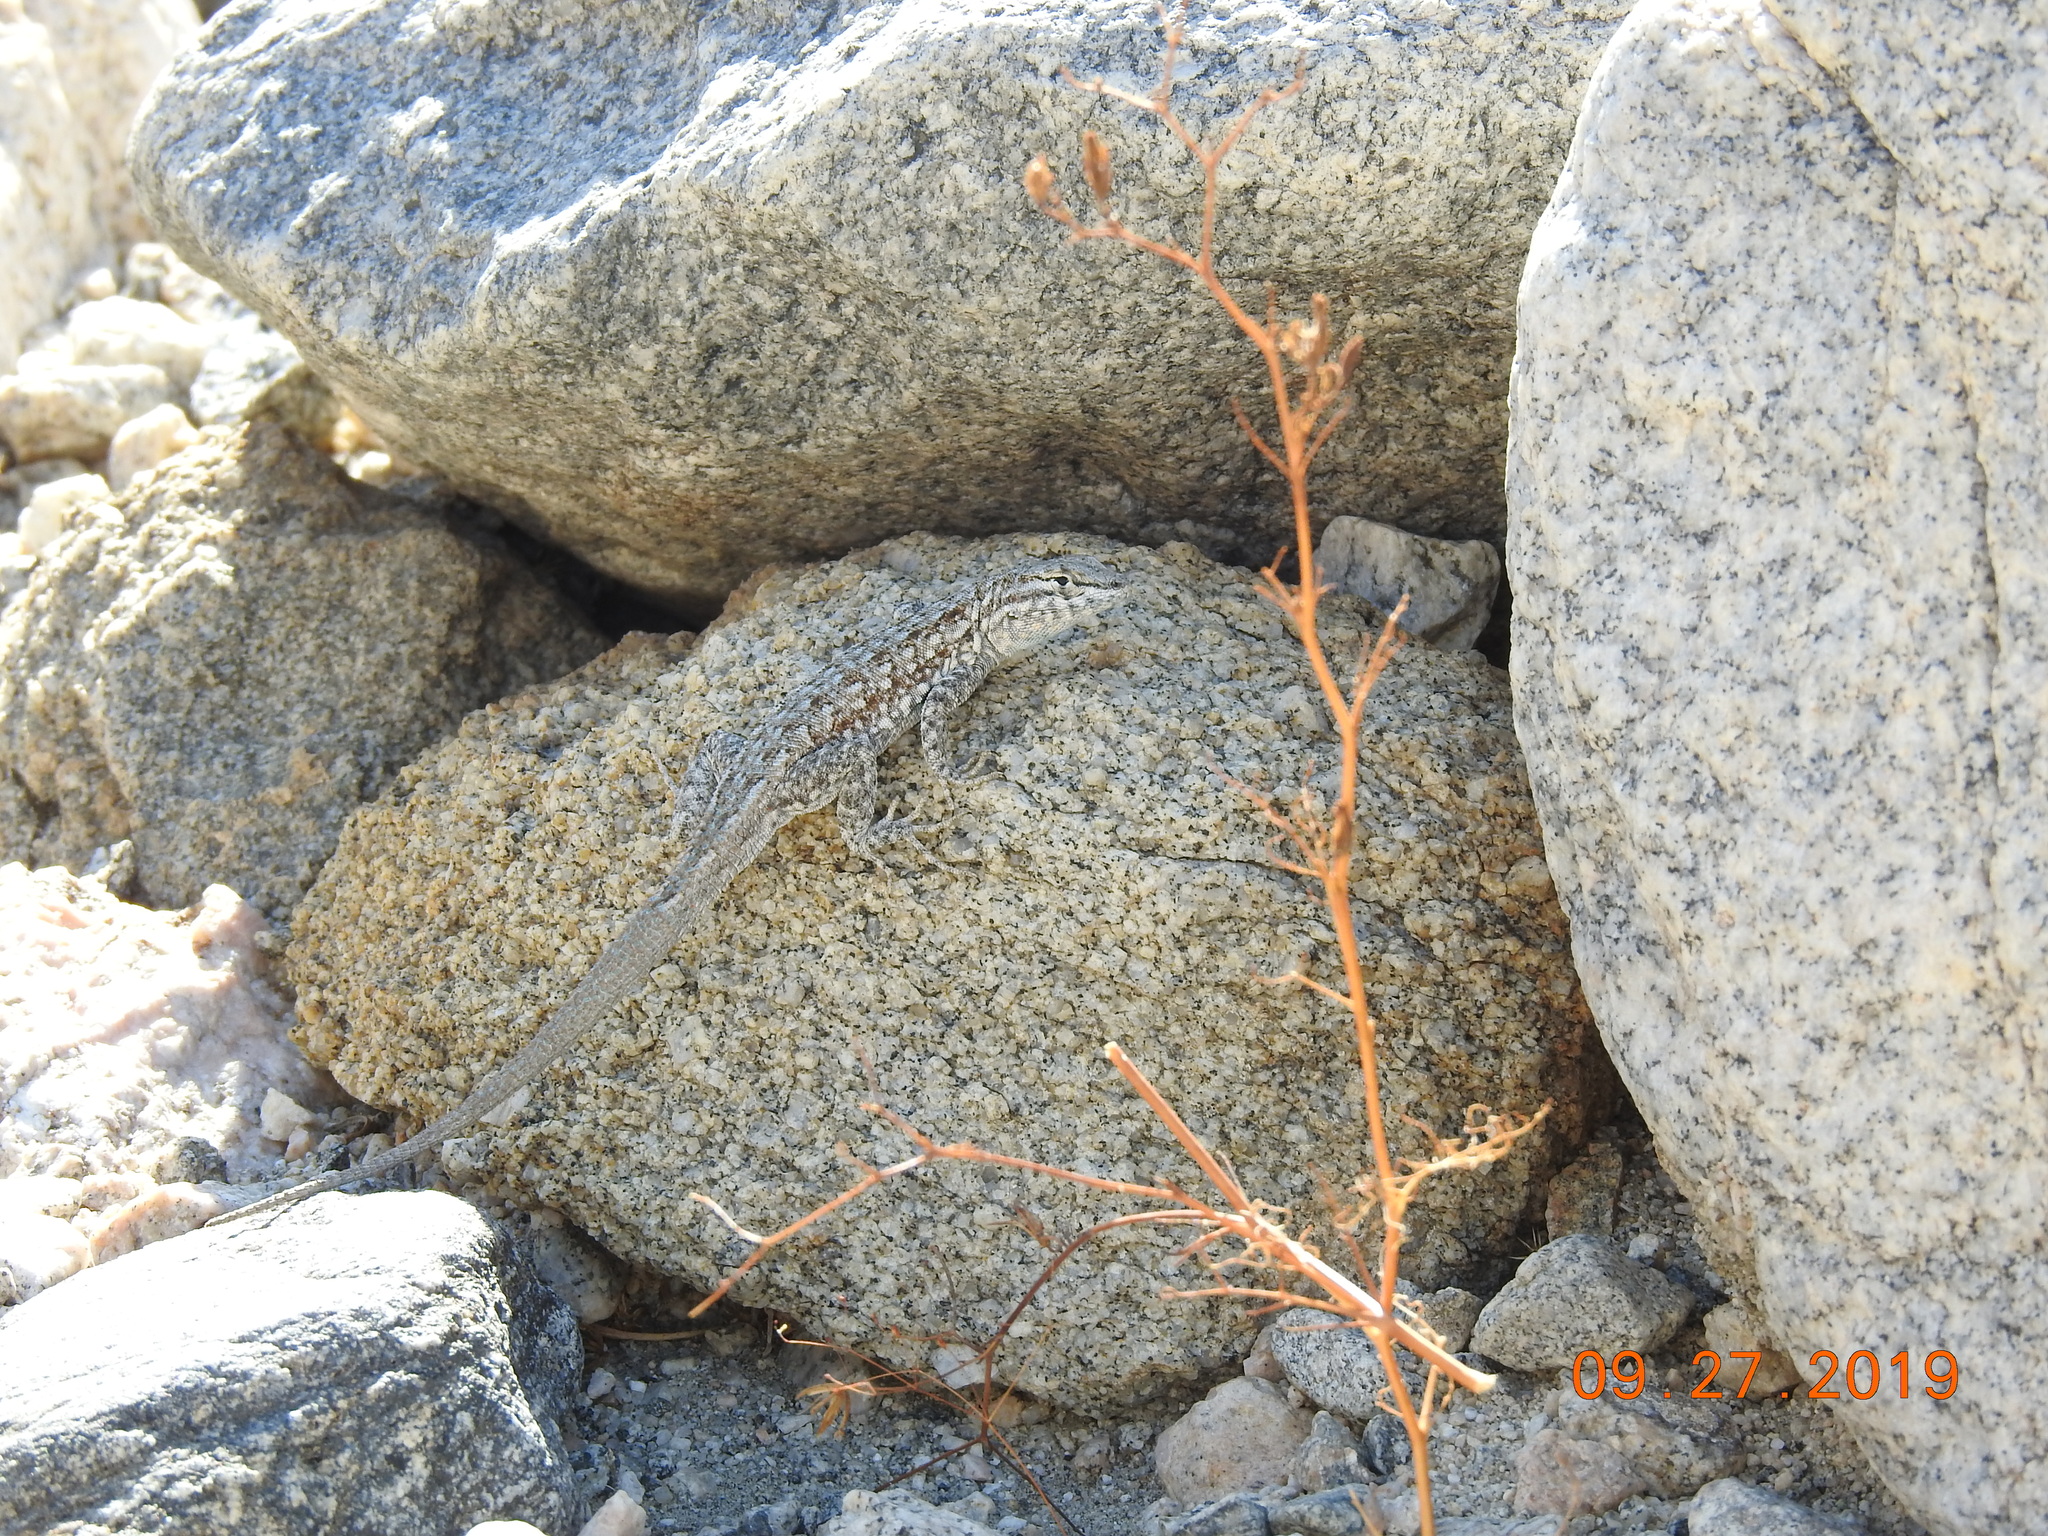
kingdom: Animalia
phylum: Chordata
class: Squamata
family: Phrynosomatidae
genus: Uta
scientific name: Uta stansburiana
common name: Side-blotched lizard
